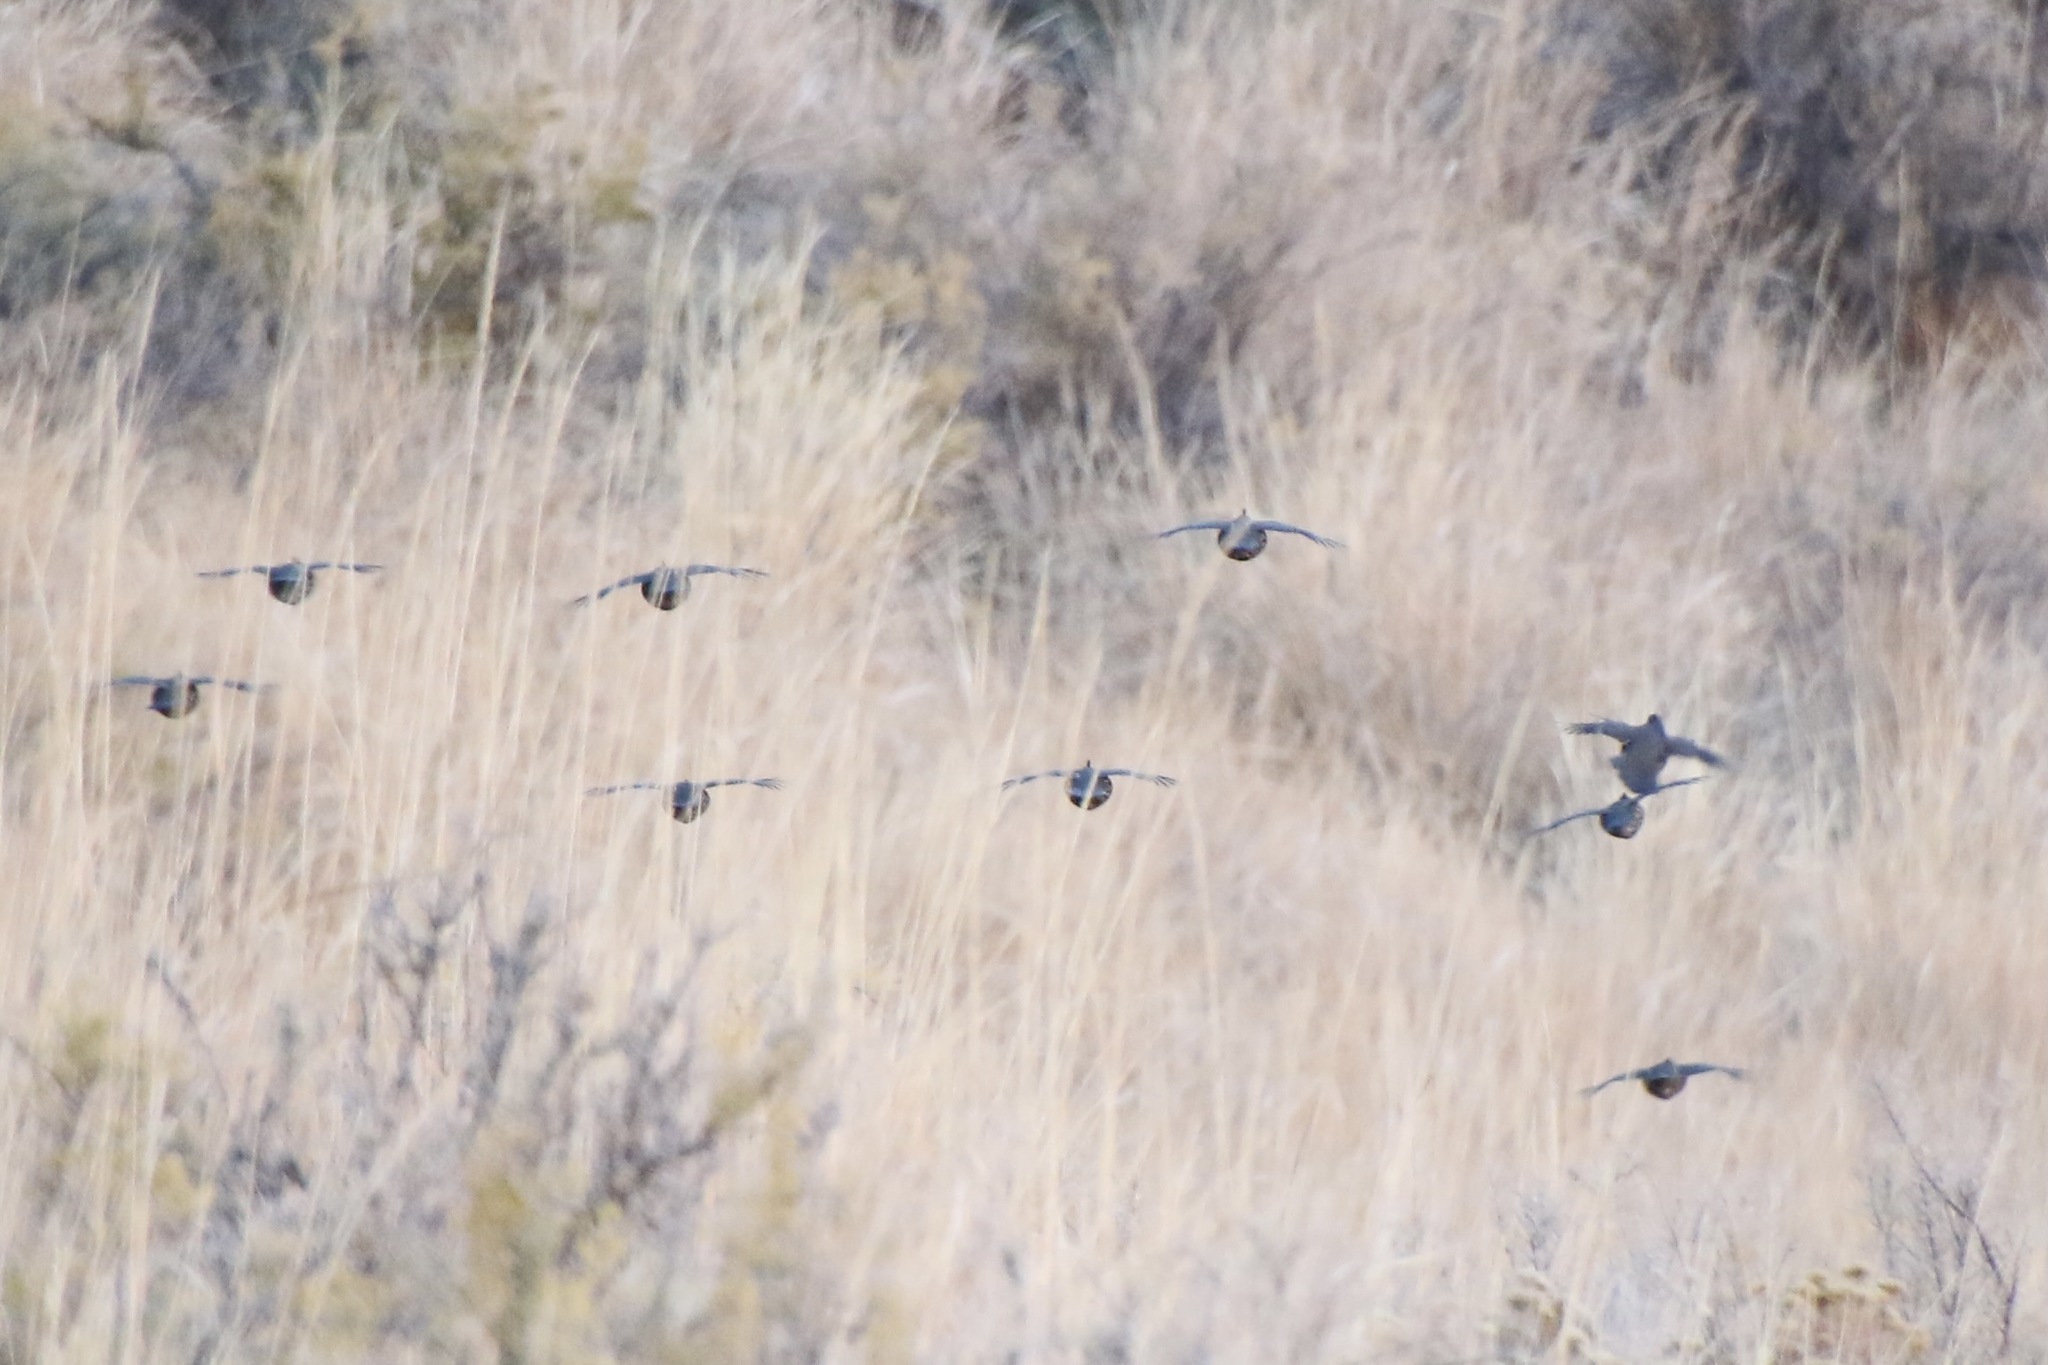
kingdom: Animalia
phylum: Chordata
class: Aves
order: Galliformes
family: Odontophoridae
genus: Callipepla
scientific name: Callipepla californica
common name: California quail
